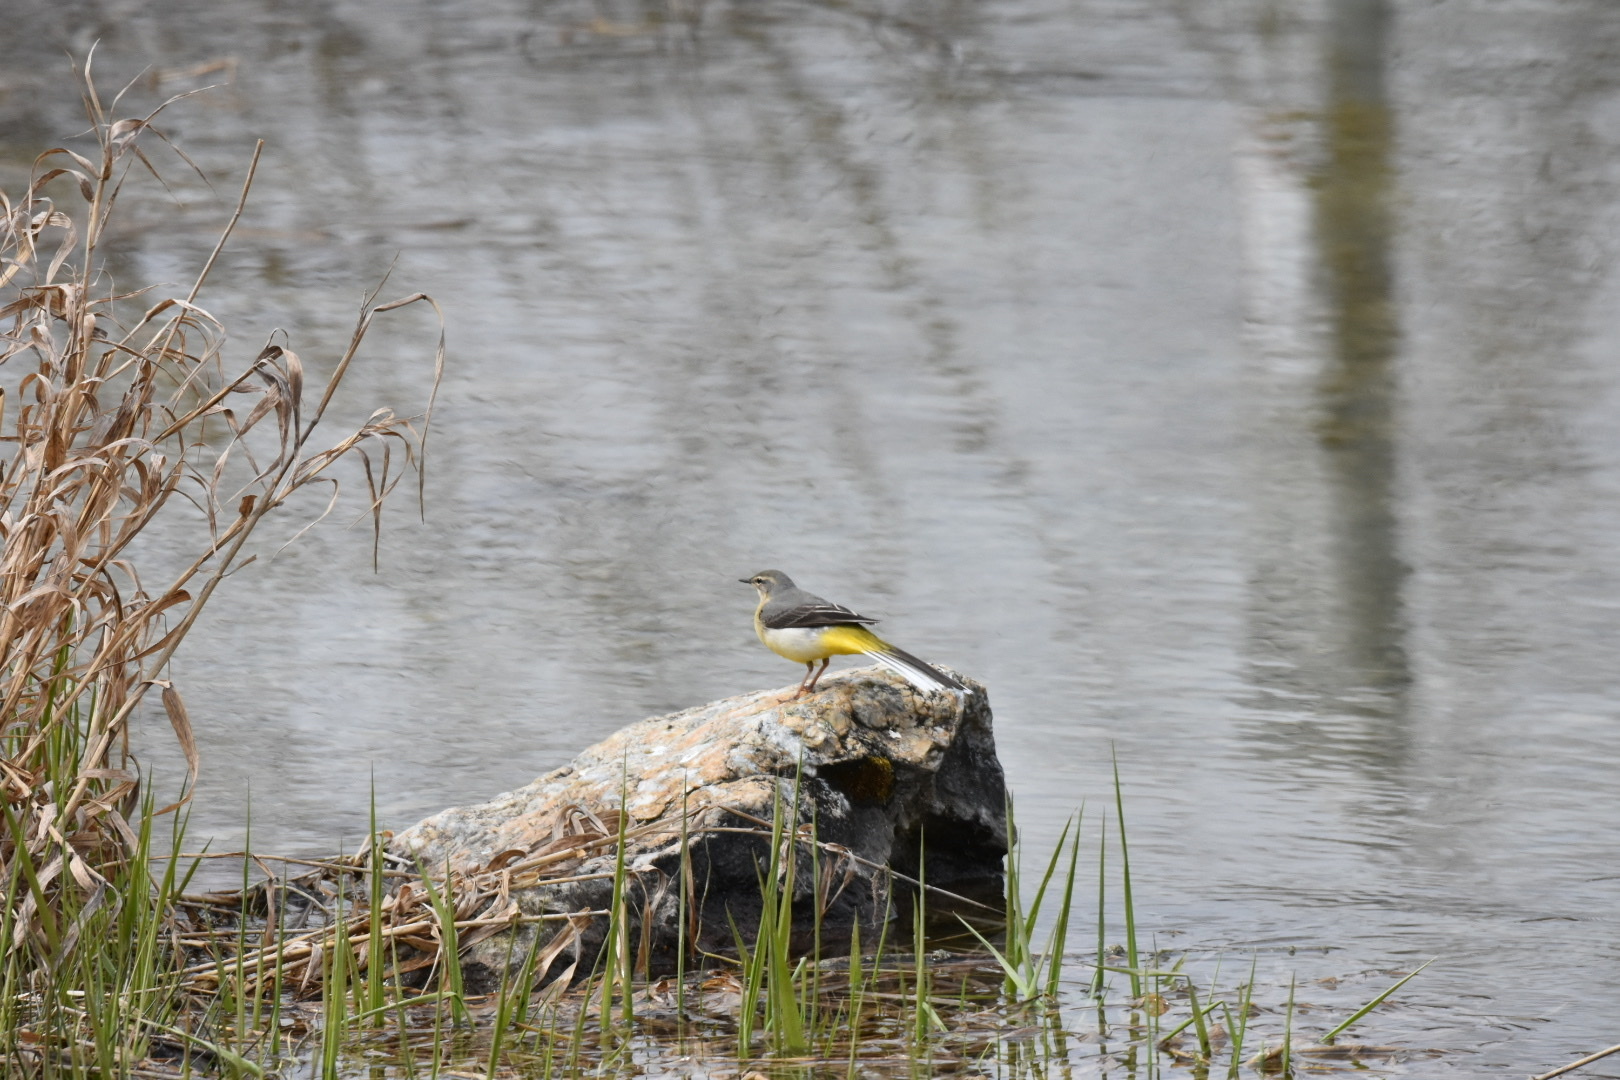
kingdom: Animalia
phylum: Chordata
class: Aves
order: Passeriformes
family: Motacillidae
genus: Motacilla
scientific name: Motacilla cinerea
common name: Grey wagtail
